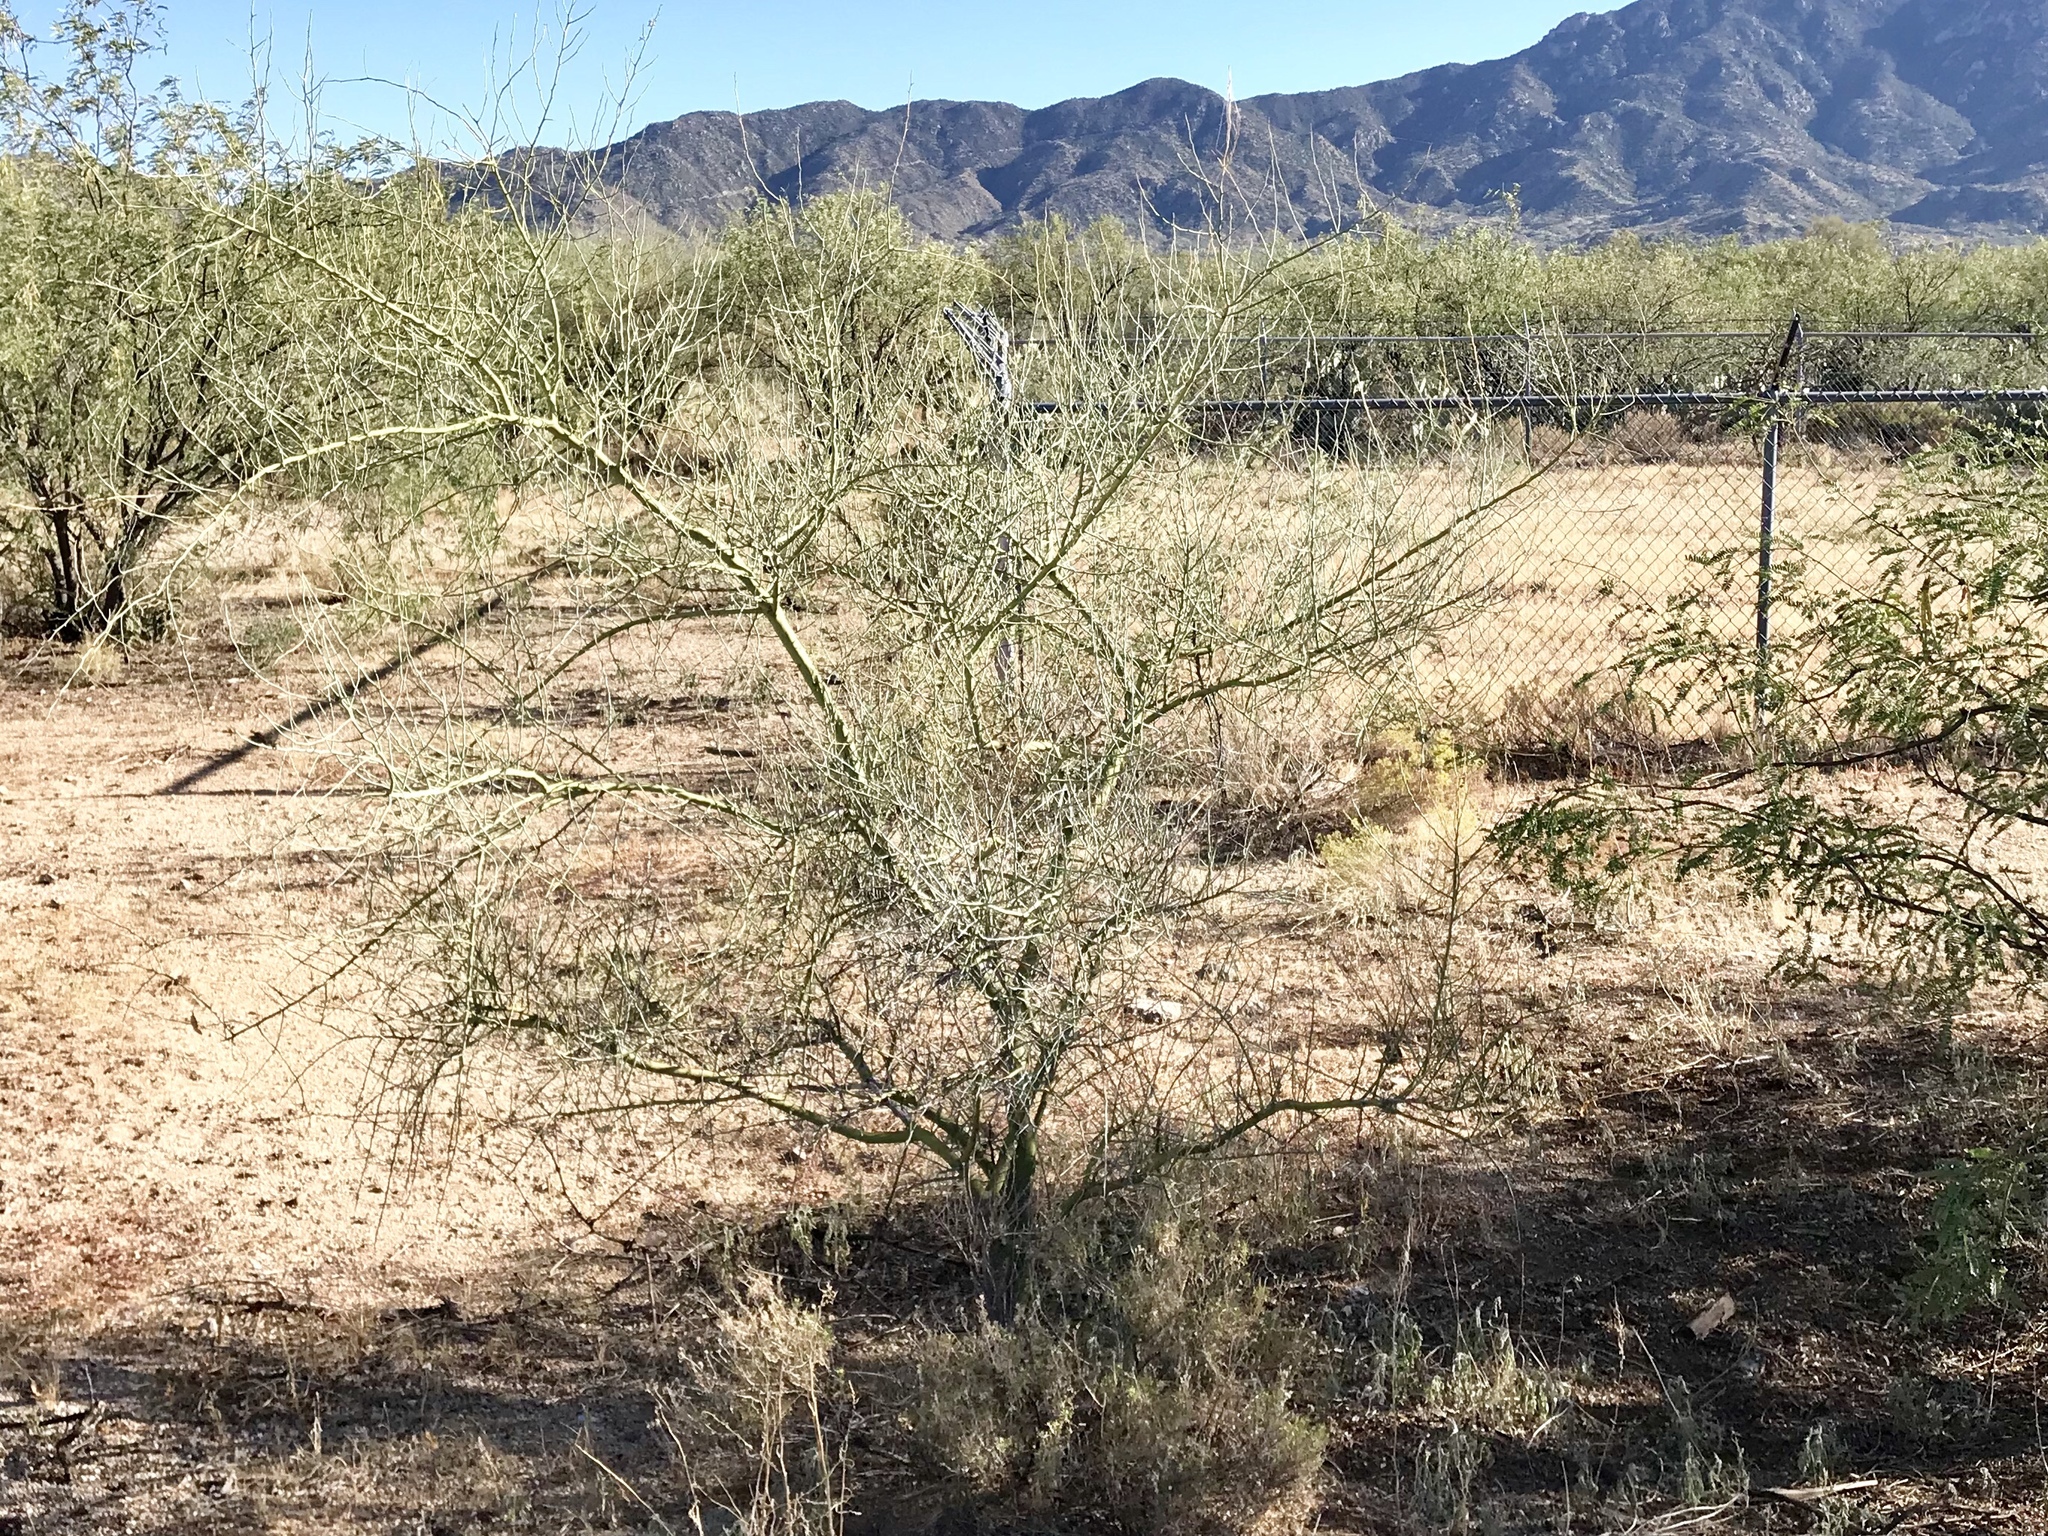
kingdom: Plantae
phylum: Tracheophyta
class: Magnoliopsida
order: Fabales
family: Fabaceae
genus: Parkinsonia
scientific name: Parkinsonia florida
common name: Blue paloverde
